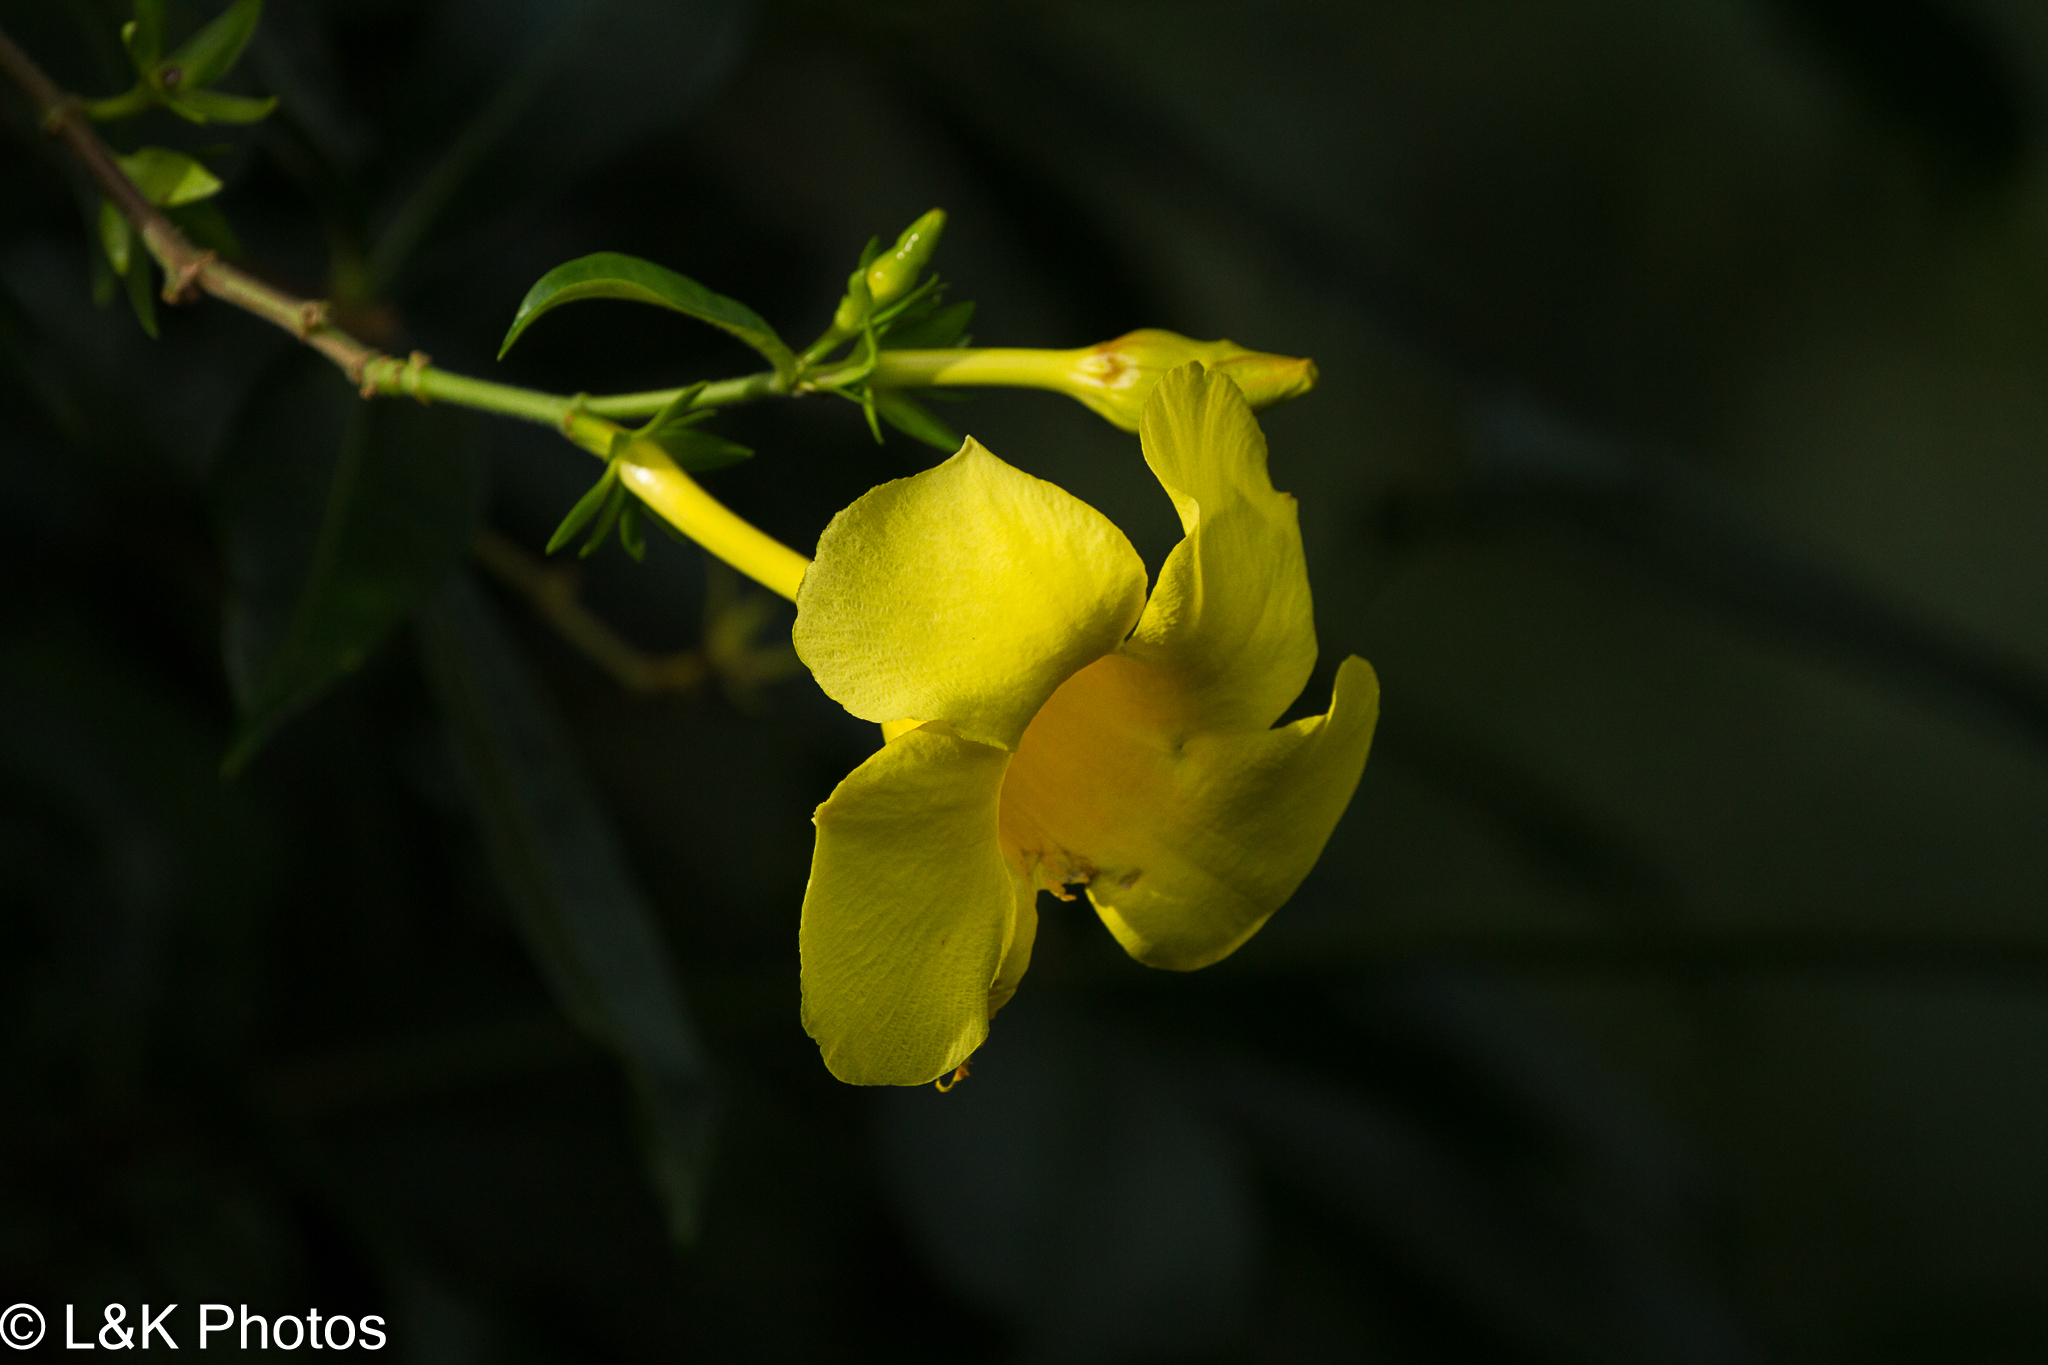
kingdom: Plantae
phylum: Tracheophyta
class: Magnoliopsida
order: Gentianales
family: Apocynaceae
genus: Allamanda
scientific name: Allamanda cathartica
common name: Golden trumpet
